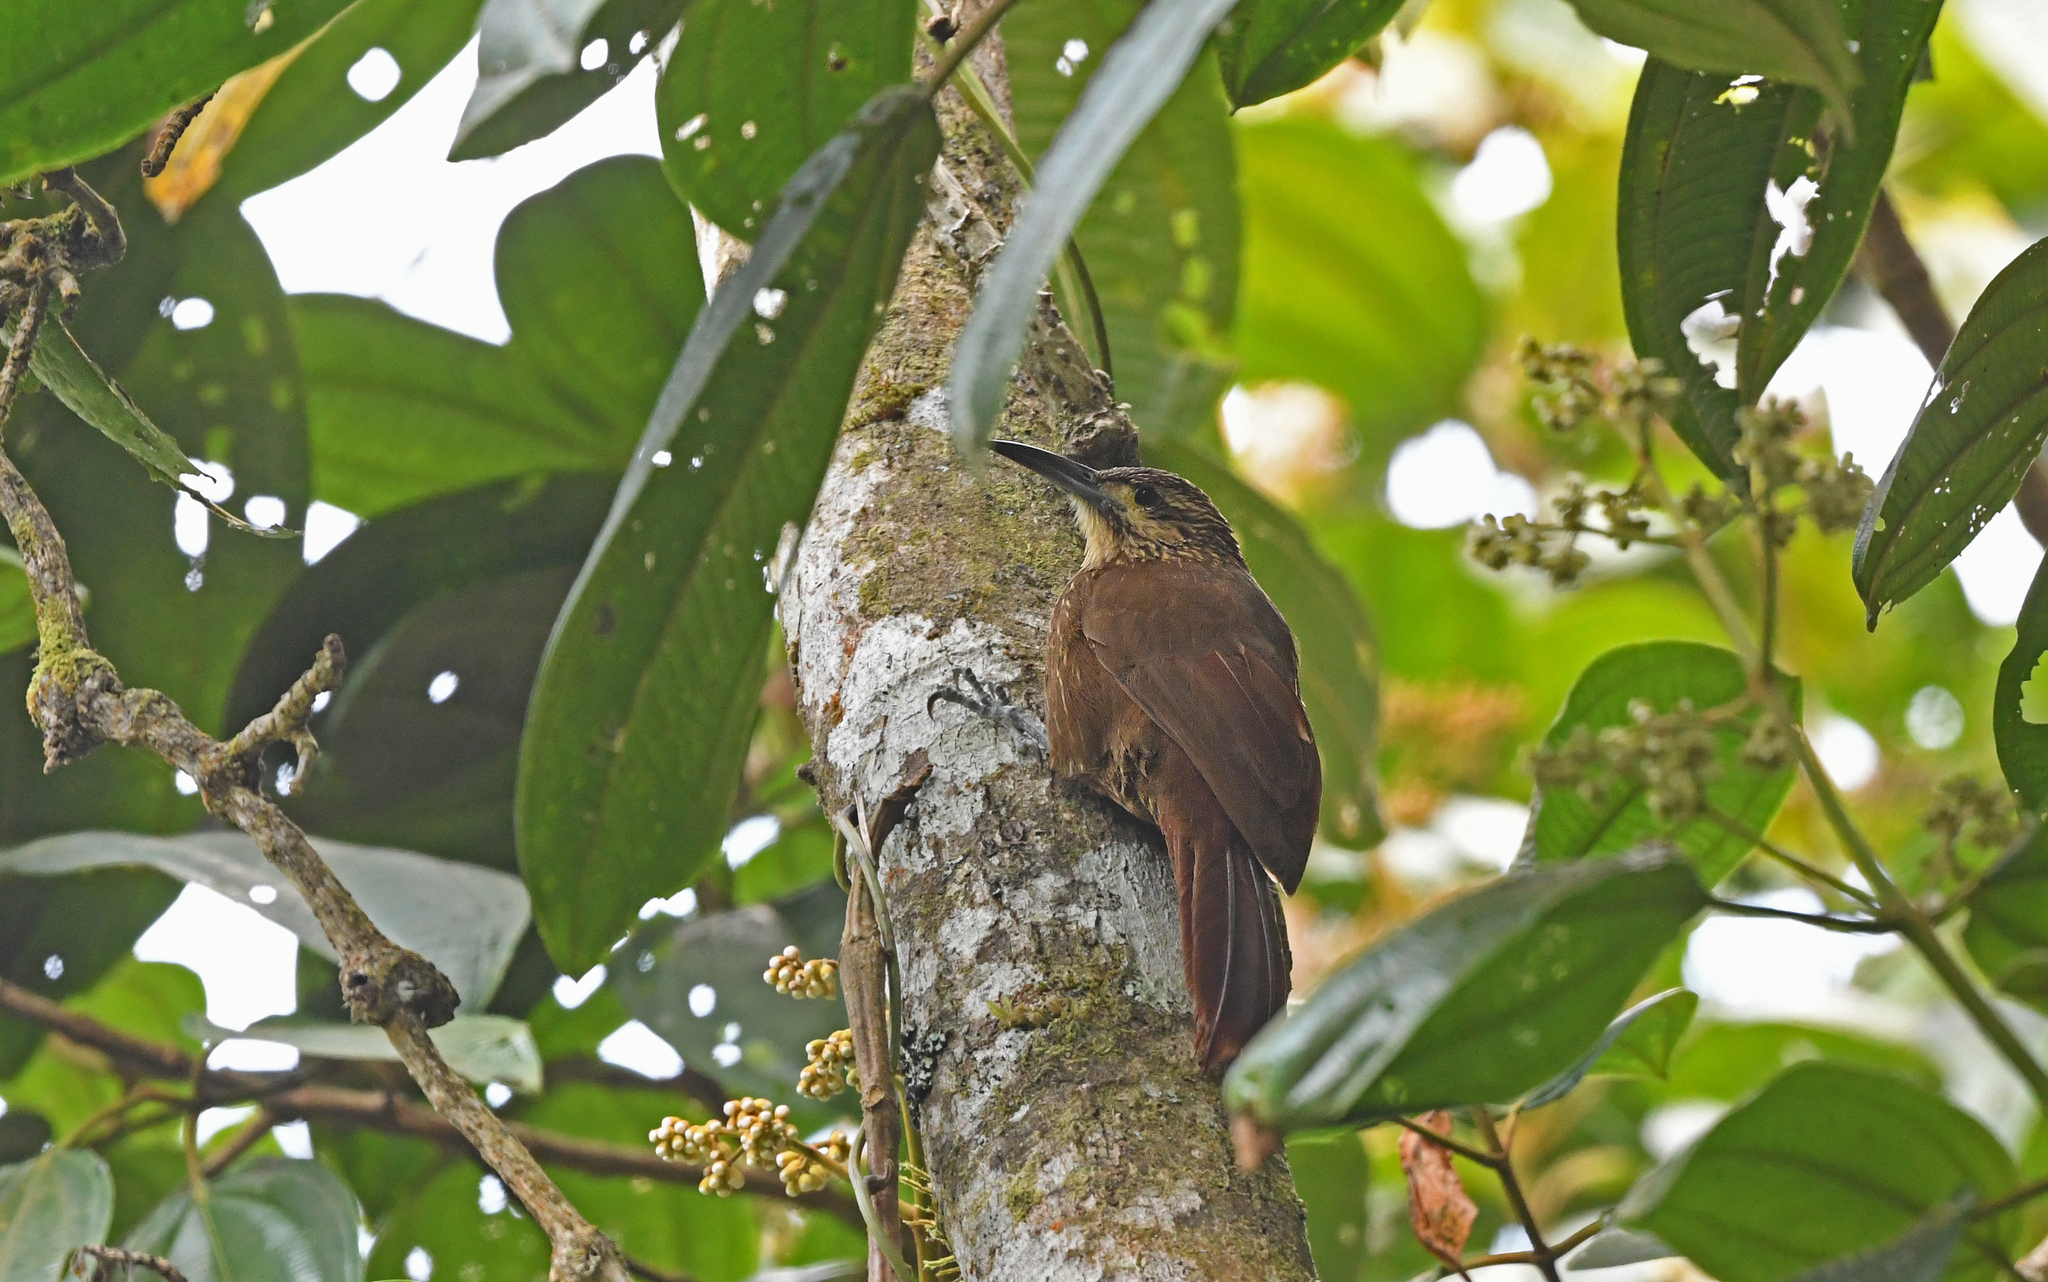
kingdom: Animalia
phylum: Chordata
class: Aves
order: Passeriformes
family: Furnariidae
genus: Xiphocolaptes
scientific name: Xiphocolaptes promeropirhynchus
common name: Strong-billed woodcreeper
